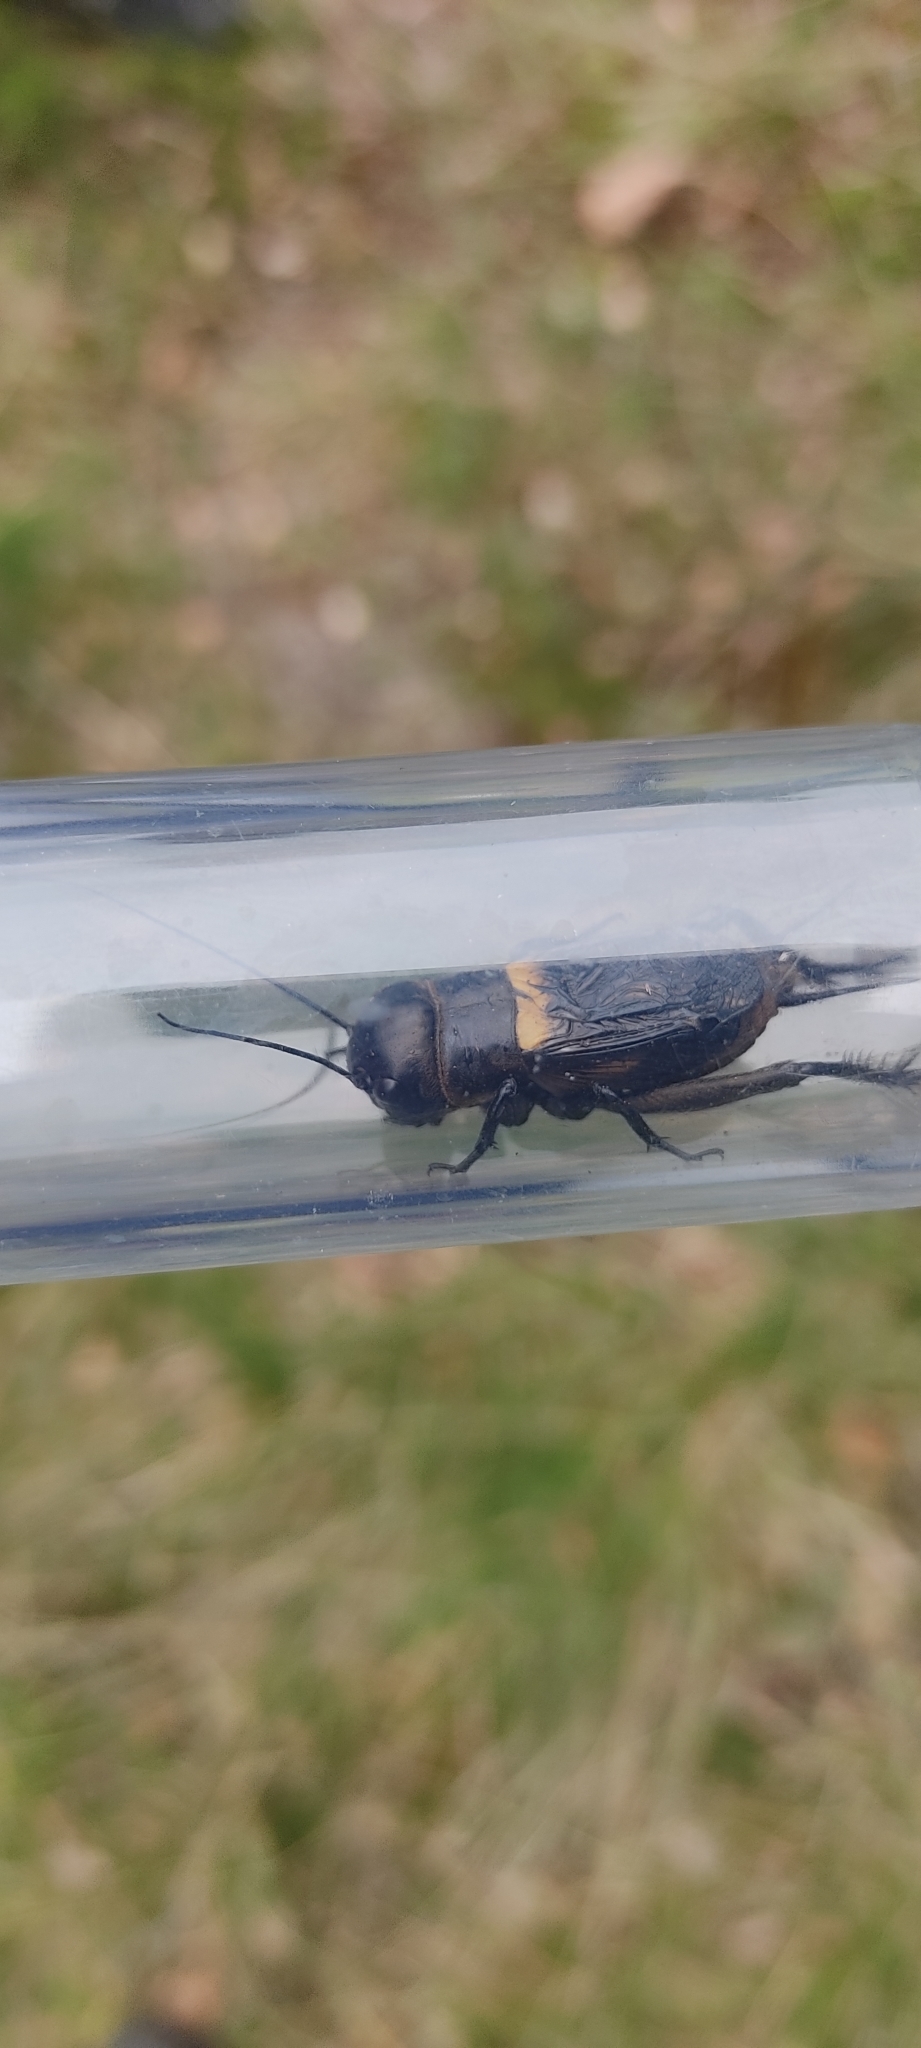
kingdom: Animalia
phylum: Arthropoda
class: Insecta
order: Orthoptera
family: Gryllidae
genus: Gryllus
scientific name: Gryllus campestris
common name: Field cricket
